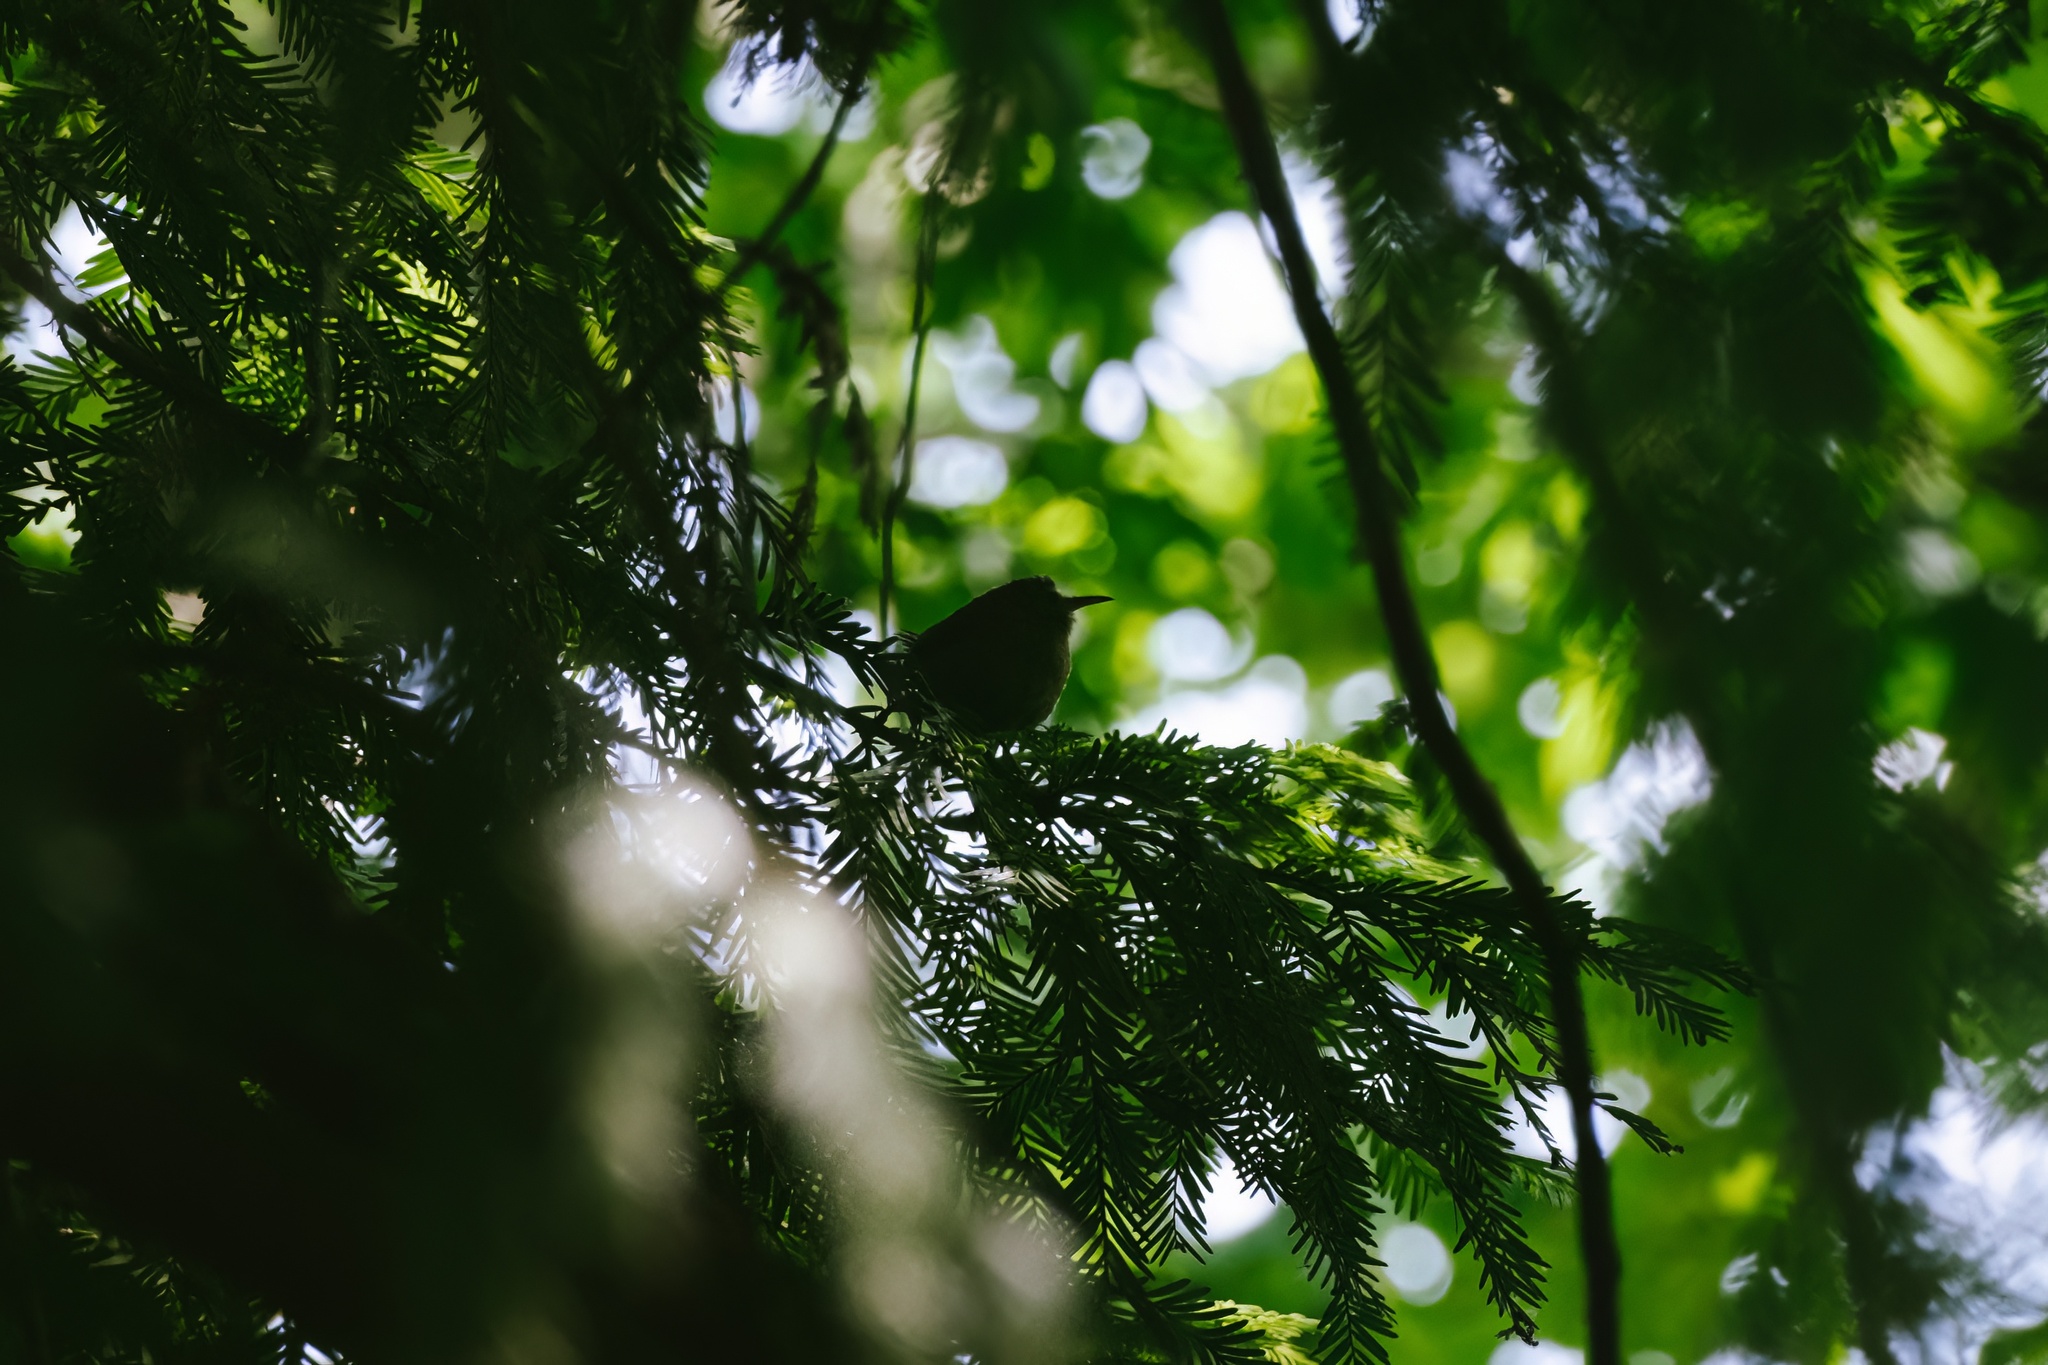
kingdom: Animalia
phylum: Chordata
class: Aves
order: Passeriformes
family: Troglodytidae
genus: Troglodytes
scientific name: Troglodytes troglodytes
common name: Eurasian wren
